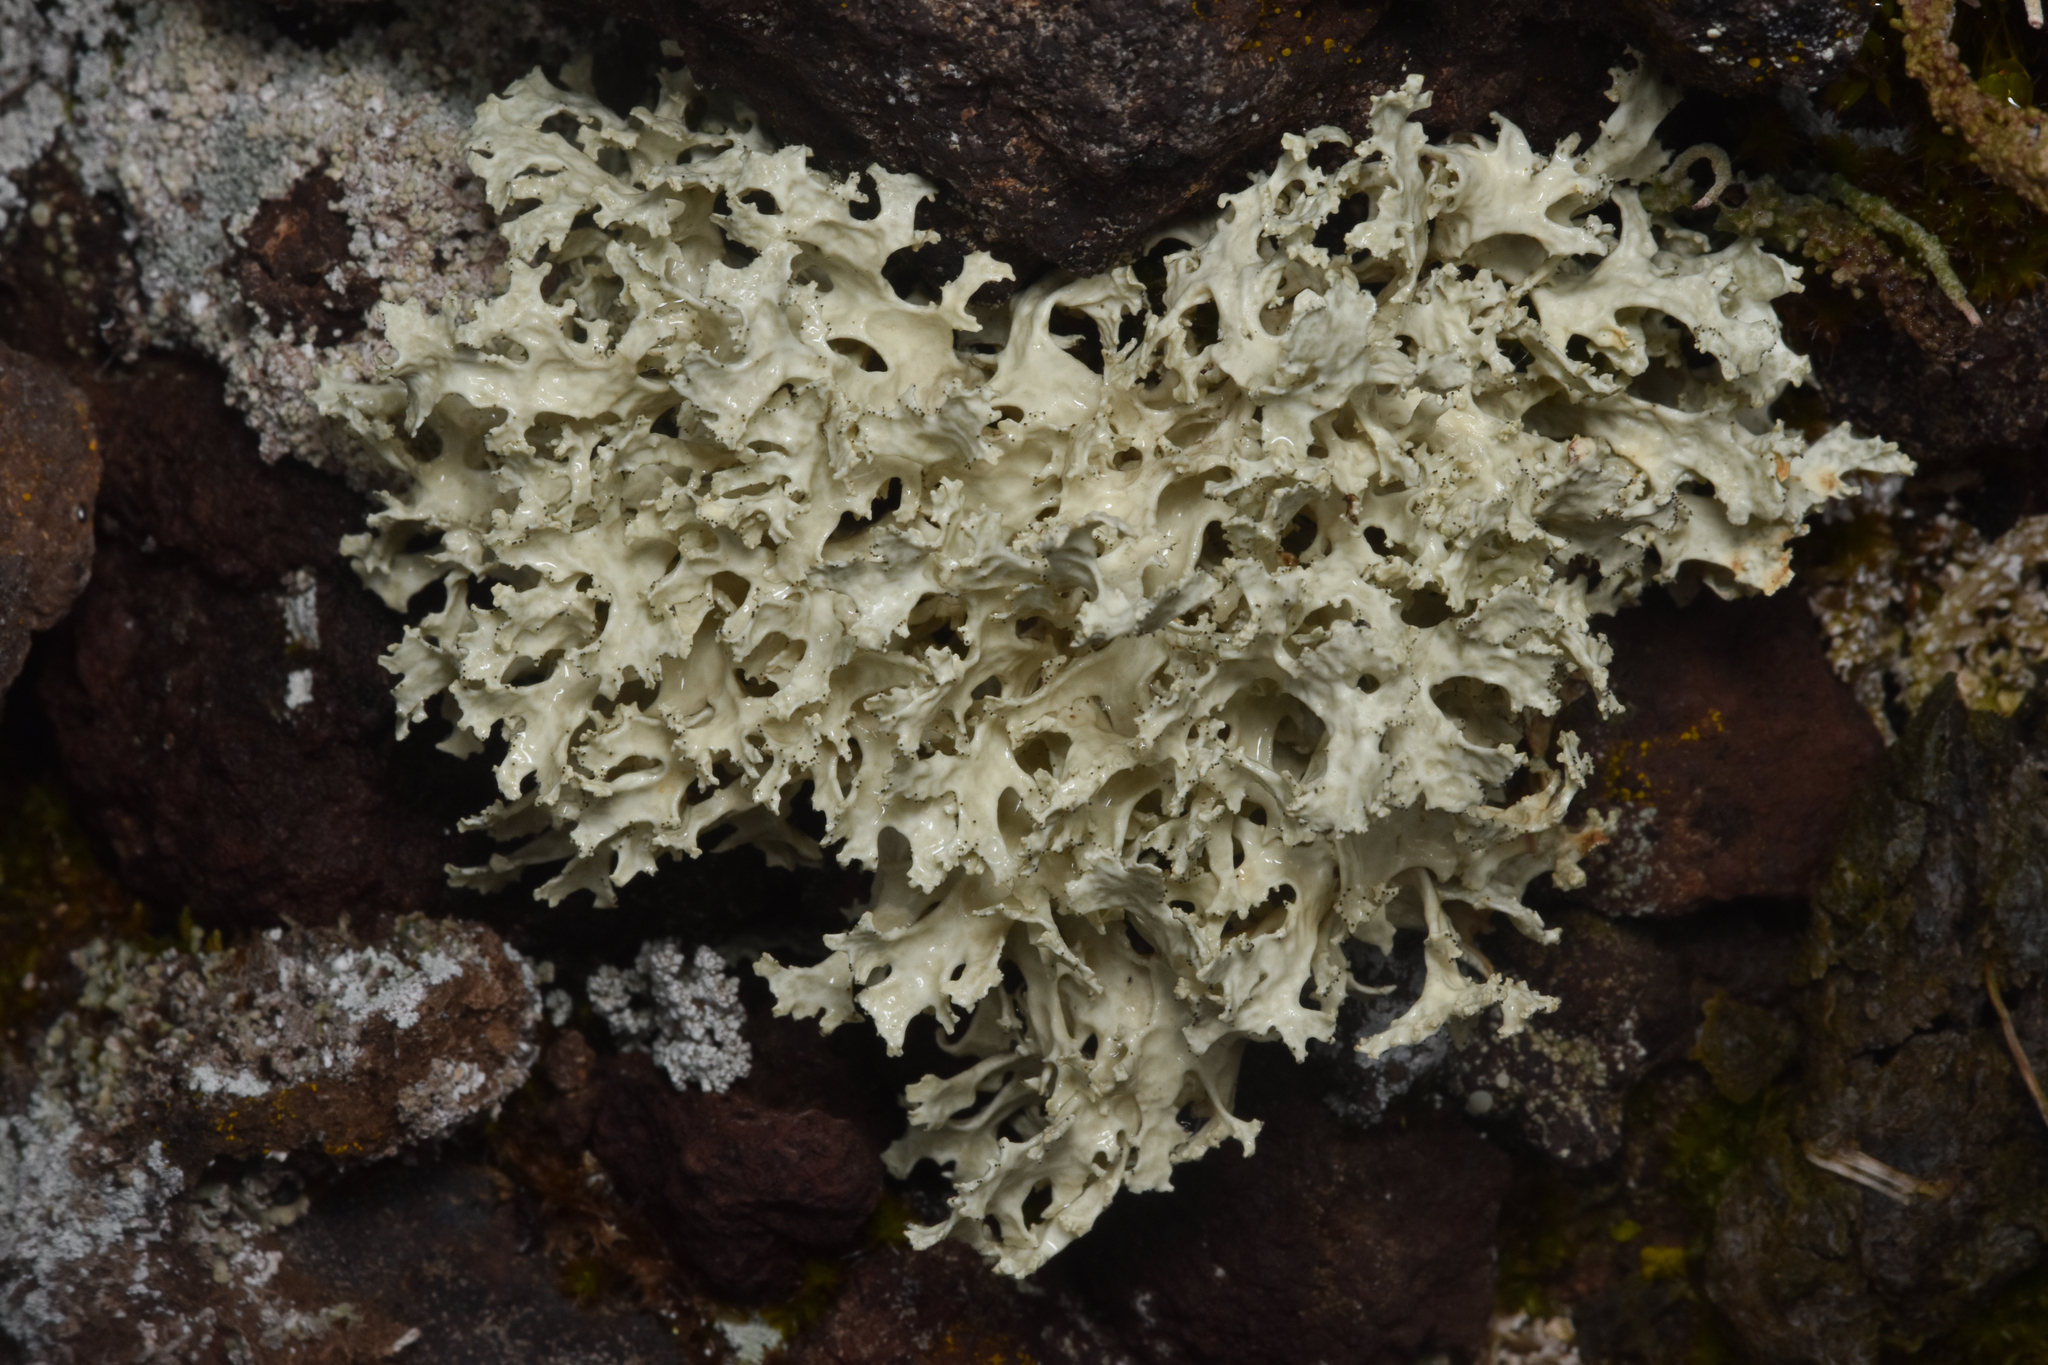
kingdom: Fungi
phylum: Ascomycota
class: Lecanoromycetes
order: Lecanorales
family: Parmeliaceae
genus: Nephromopsis
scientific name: Nephromopsis nivalis
